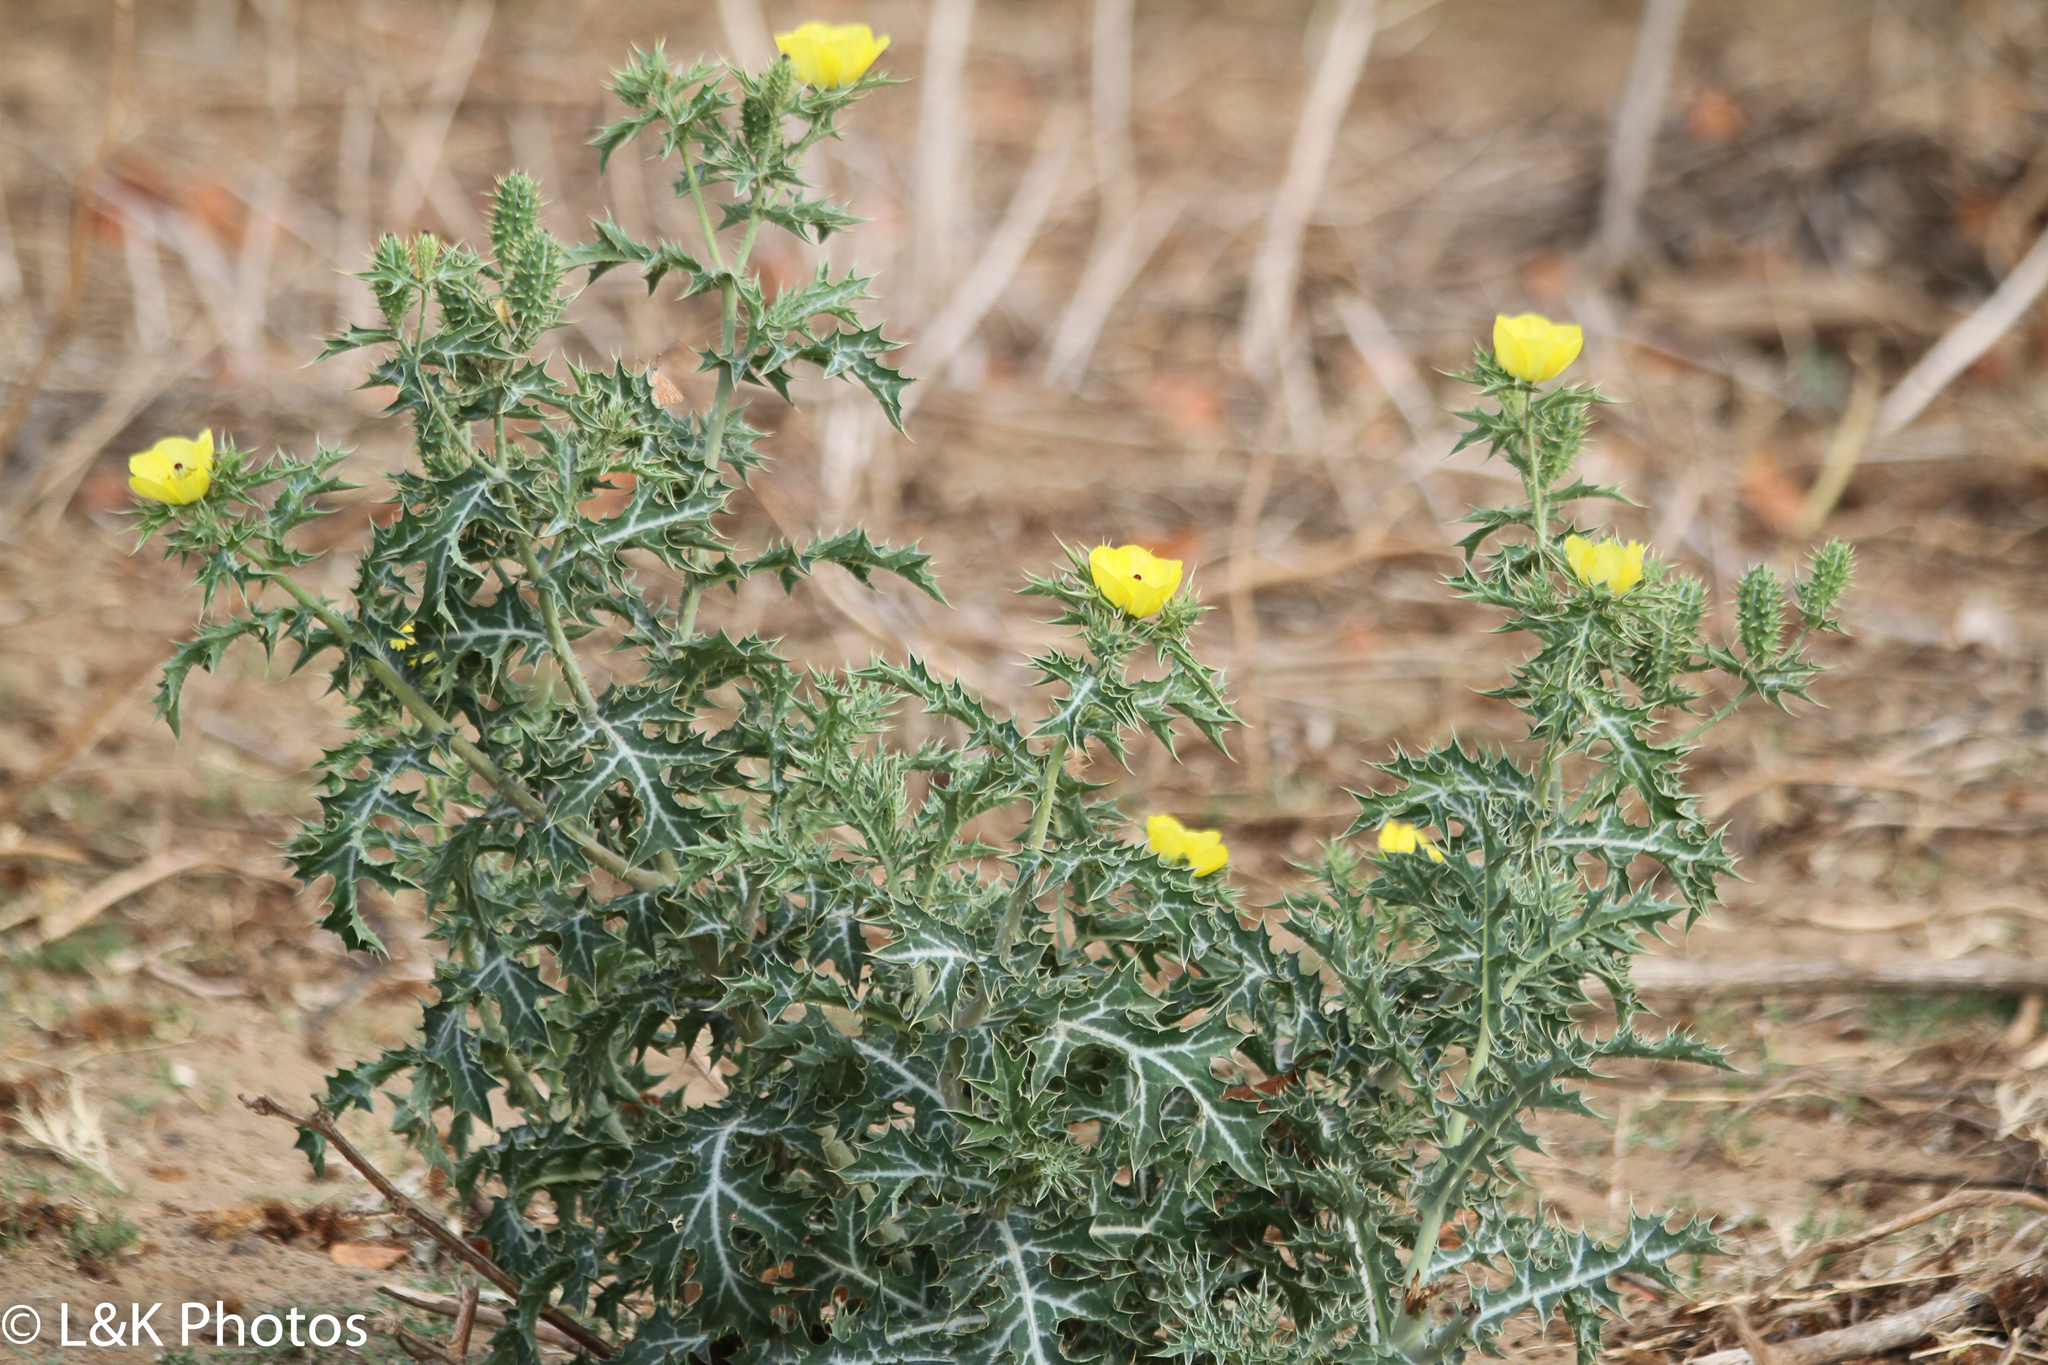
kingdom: Plantae
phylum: Tracheophyta
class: Magnoliopsida
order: Ranunculales
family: Papaveraceae
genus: Argemone
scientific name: Argemone mexicana
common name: Mexican poppy
